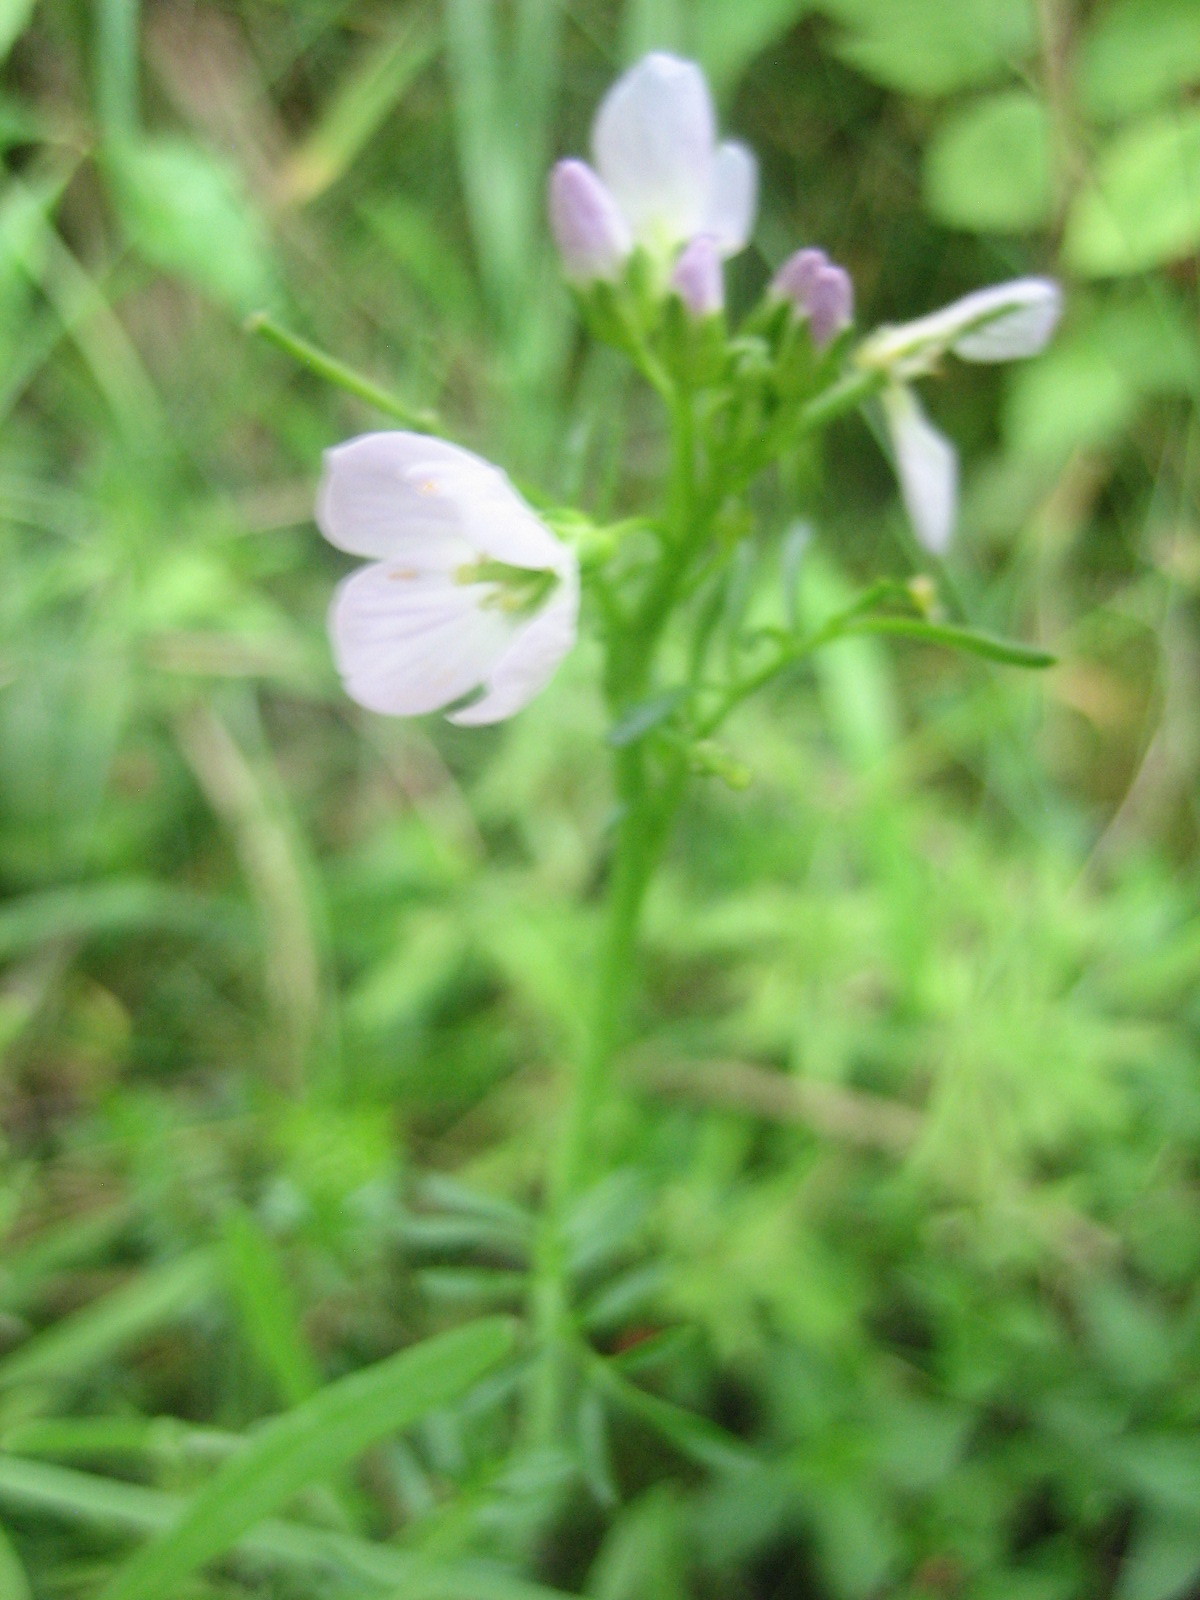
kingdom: Plantae
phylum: Tracheophyta
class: Magnoliopsida
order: Brassicales
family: Brassicaceae
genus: Cardamine
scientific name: Cardamine pratensis
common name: Cuckoo flower
